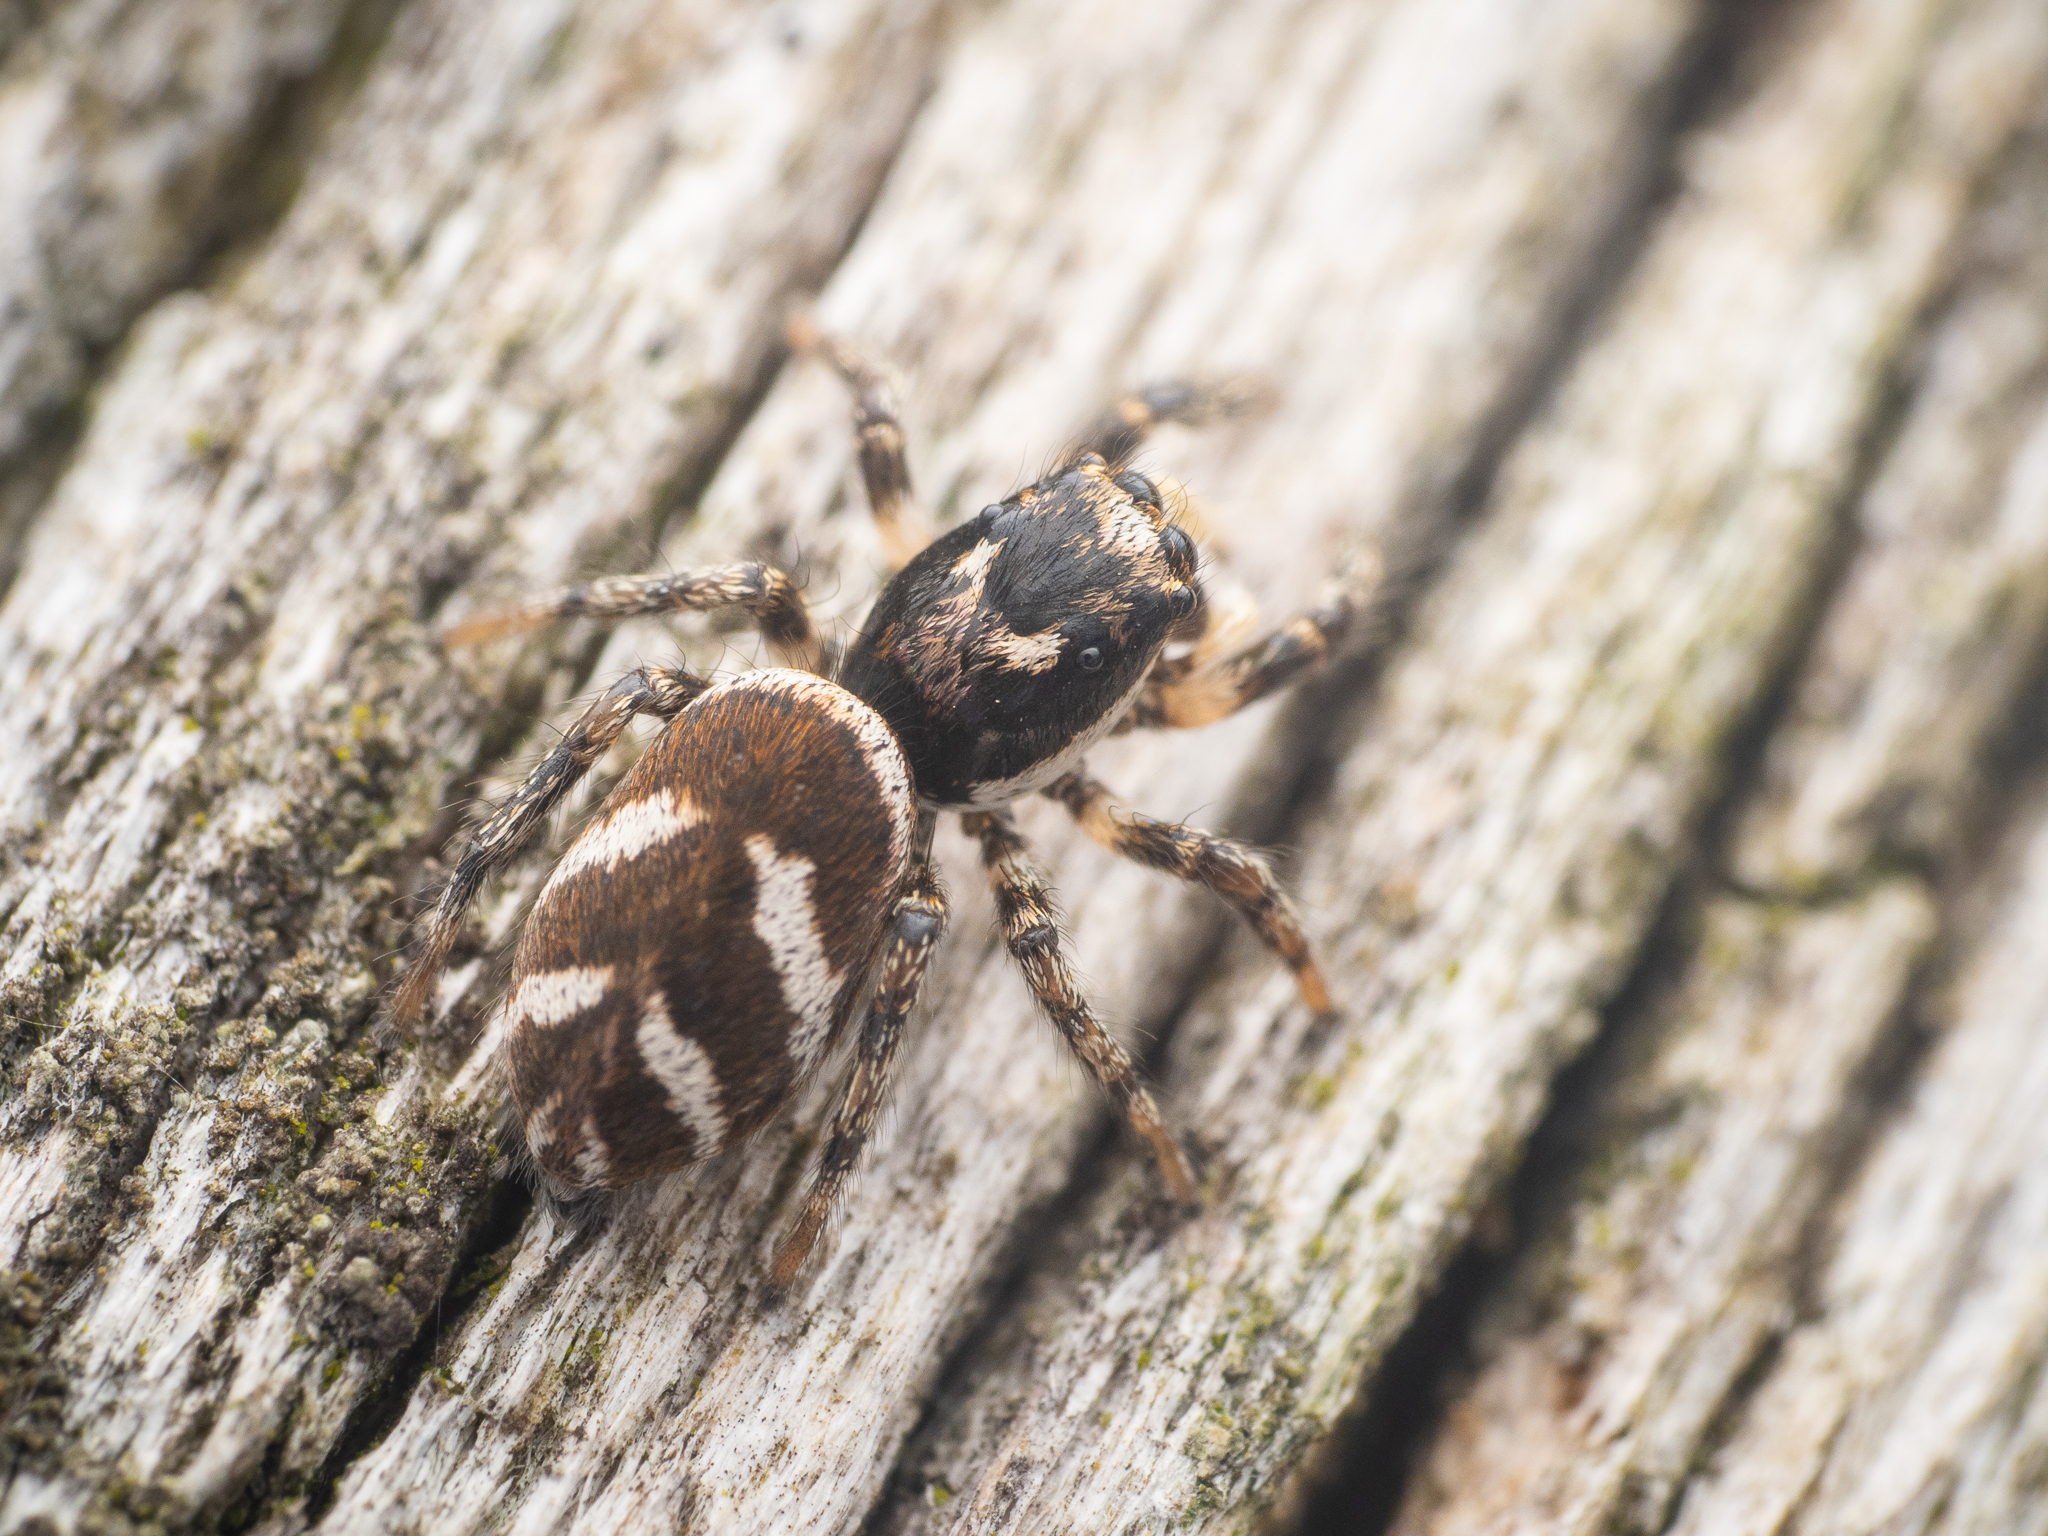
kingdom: Animalia
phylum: Arthropoda
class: Arachnida
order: Araneae
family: Salticidae
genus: Salticus
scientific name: Salticus scenicus
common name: Zebra jumper
